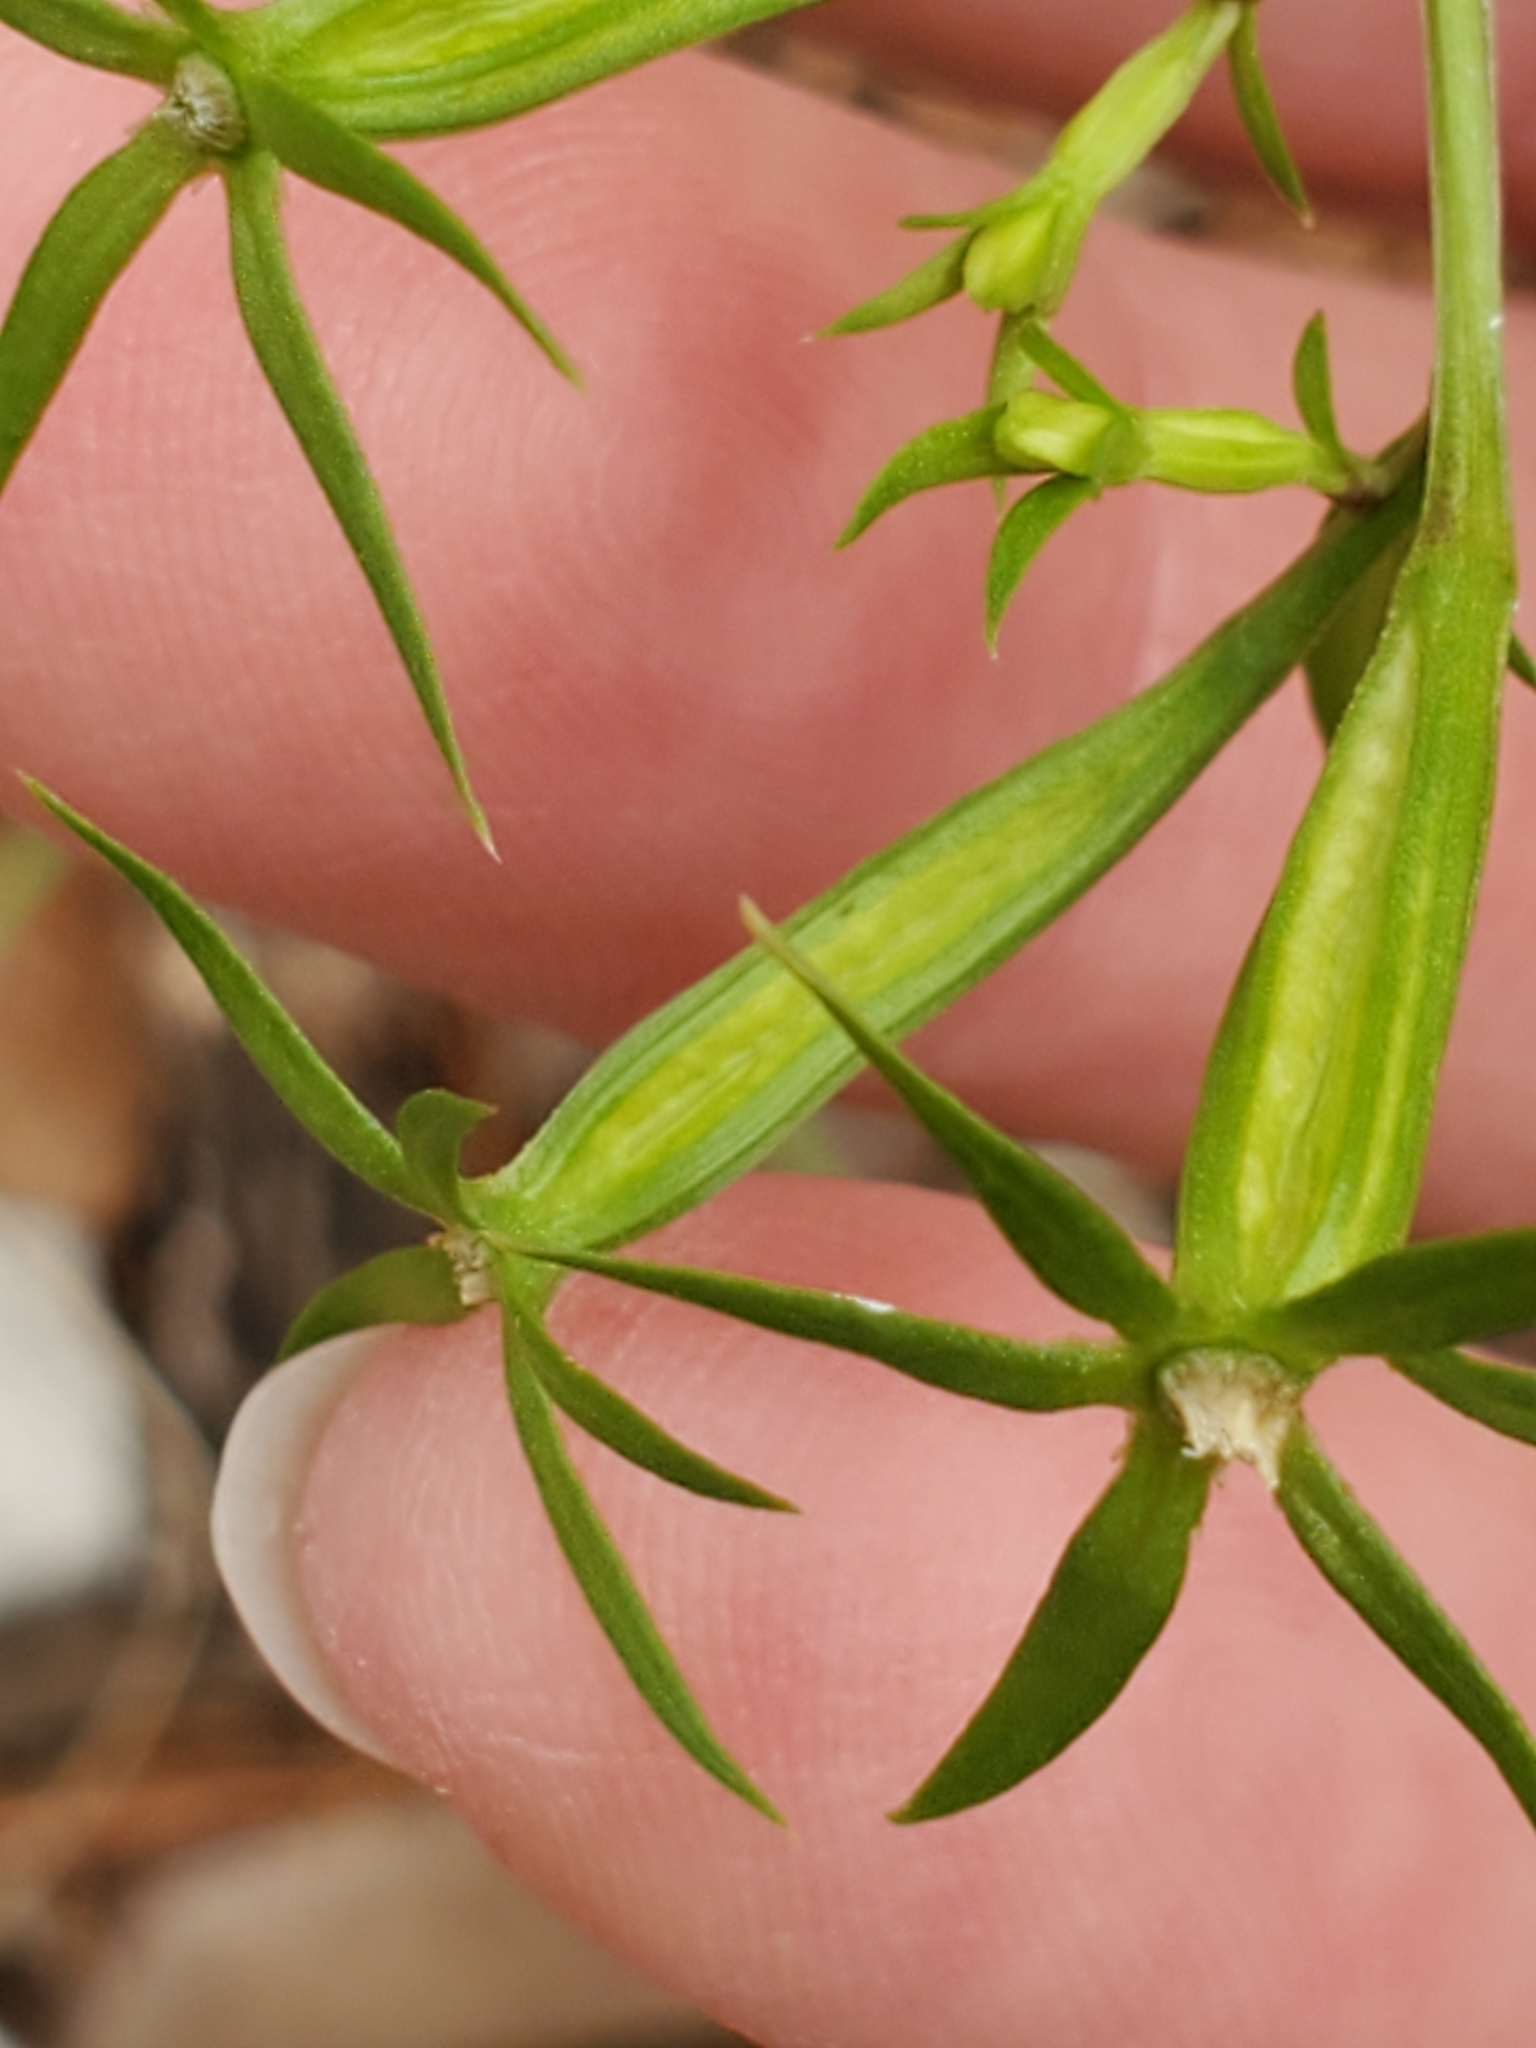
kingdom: Plantae
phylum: Tracheophyta
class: Magnoliopsida
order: Asterales
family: Campanulaceae
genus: Triodanis
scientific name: Triodanis coloradoensis
